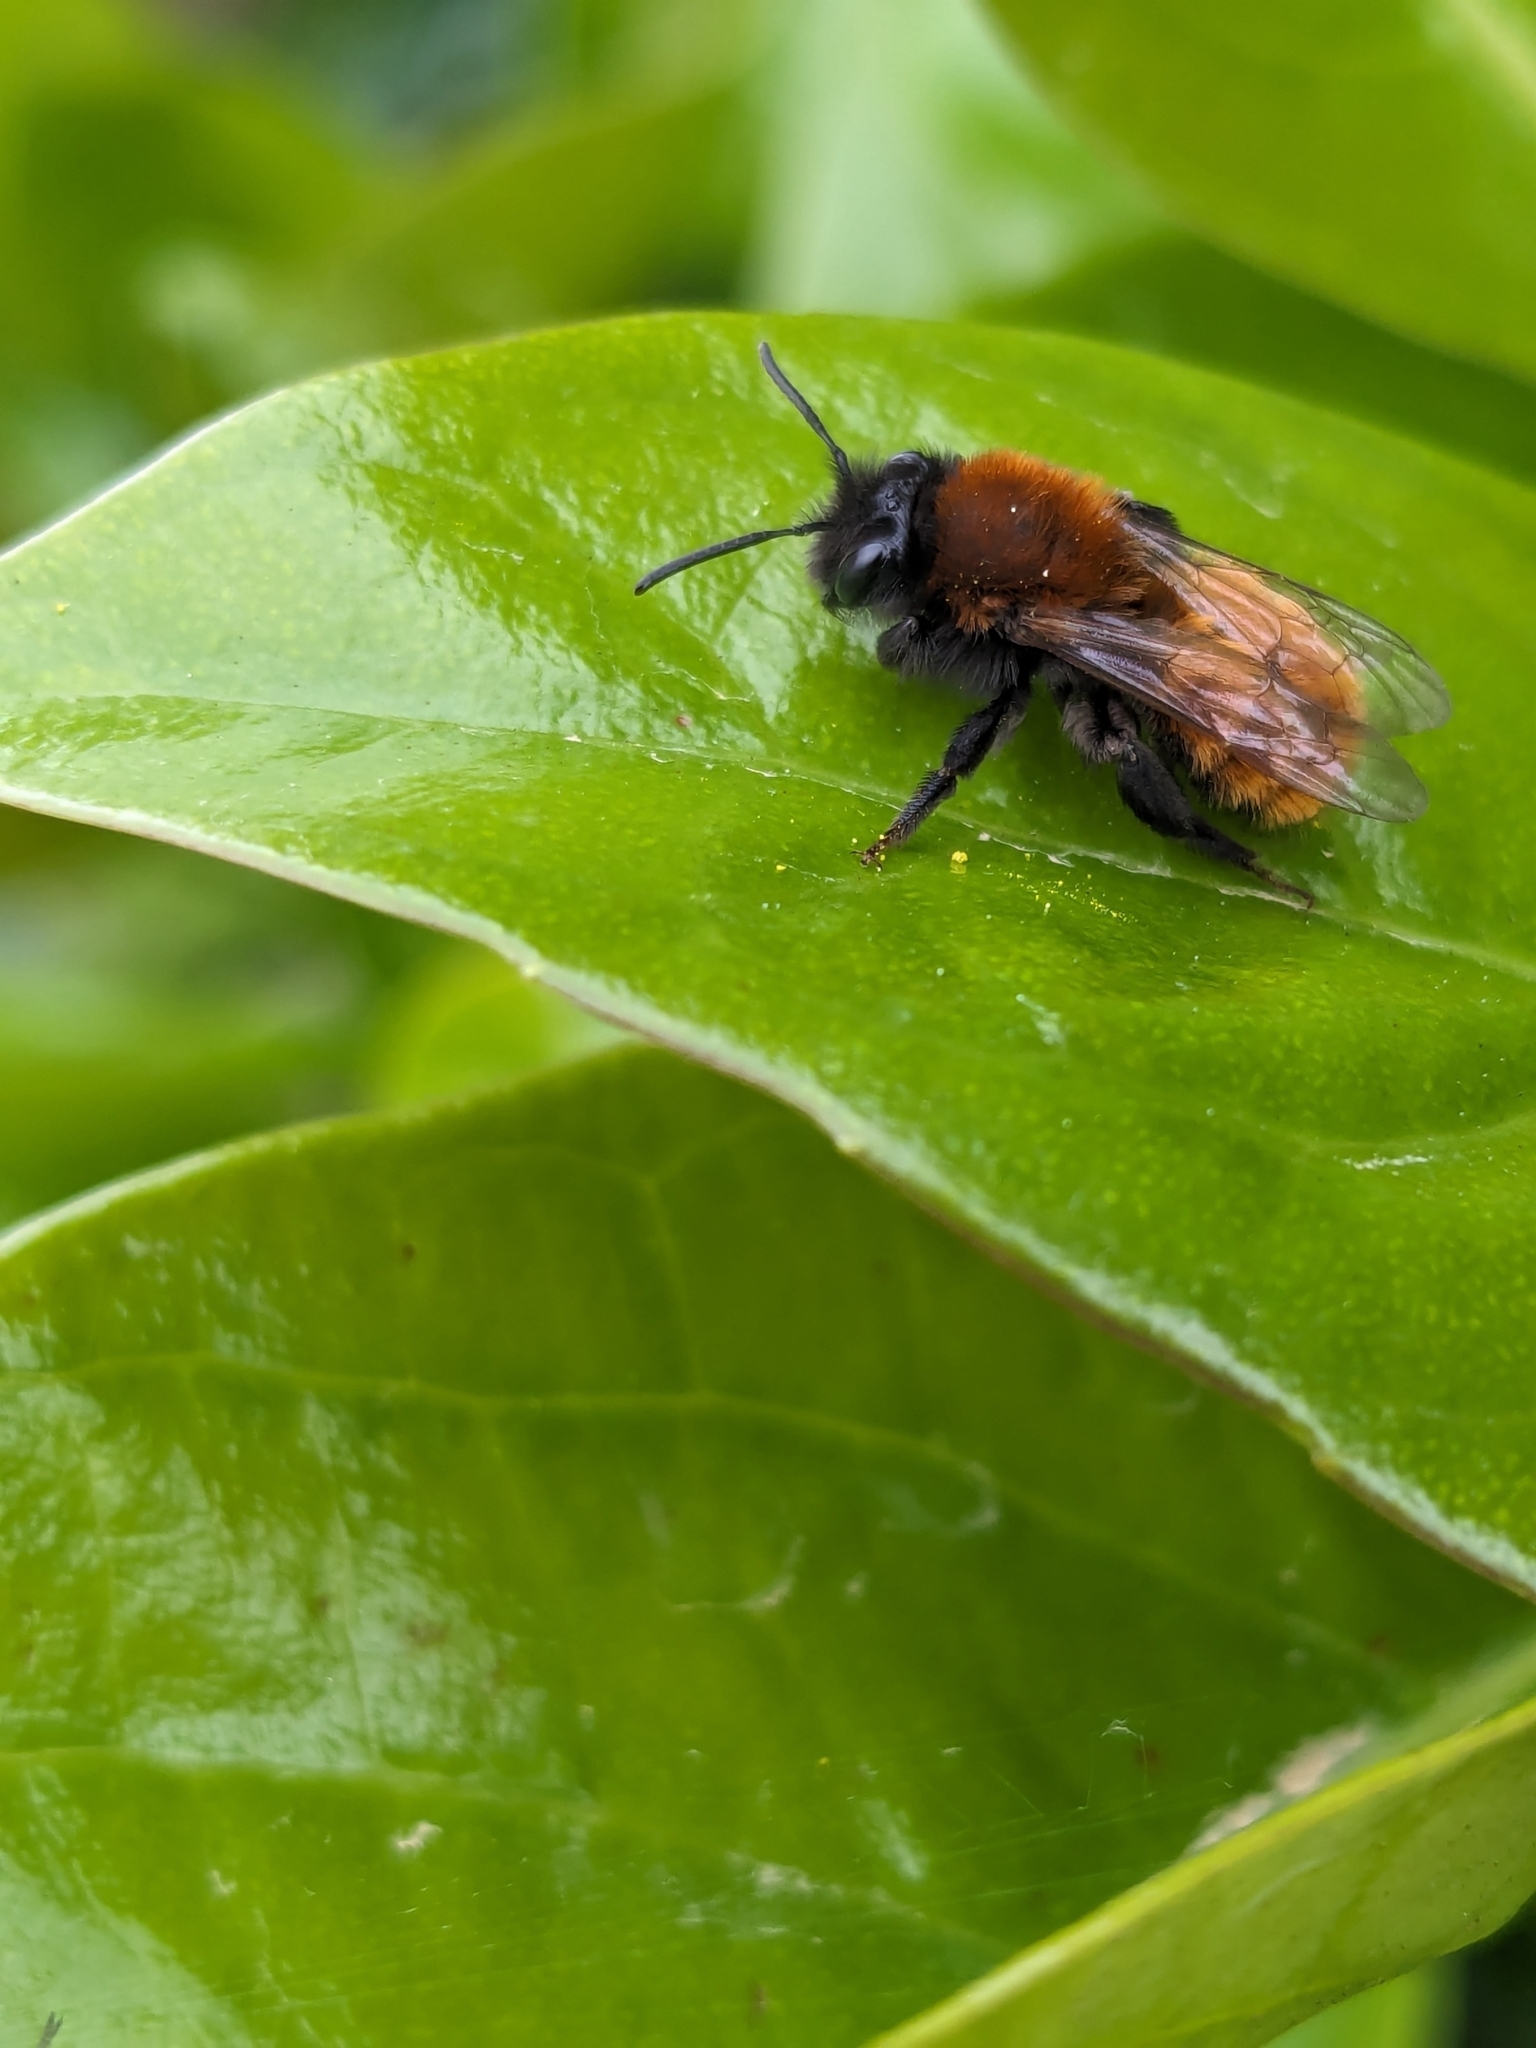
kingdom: Animalia
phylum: Arthropoda
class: Insecta
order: Hymenoptera
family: Andrenidae
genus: Andrena
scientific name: Andrena fulva
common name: Tawny mining bee
